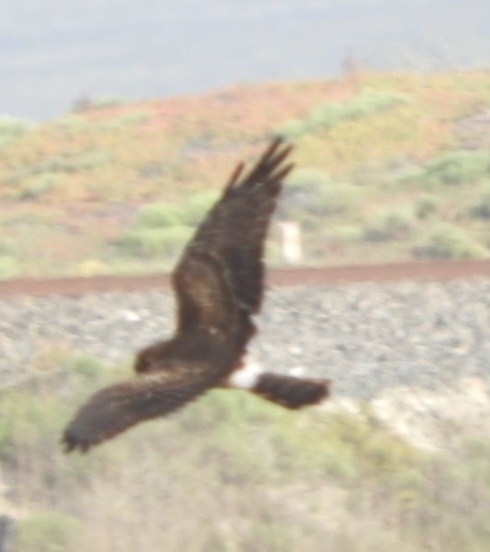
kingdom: Animalia
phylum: Chordata
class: Aves
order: Accipitriformes
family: Accipitridae
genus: Circus
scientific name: Circus cyaneus
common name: Hen harrier
